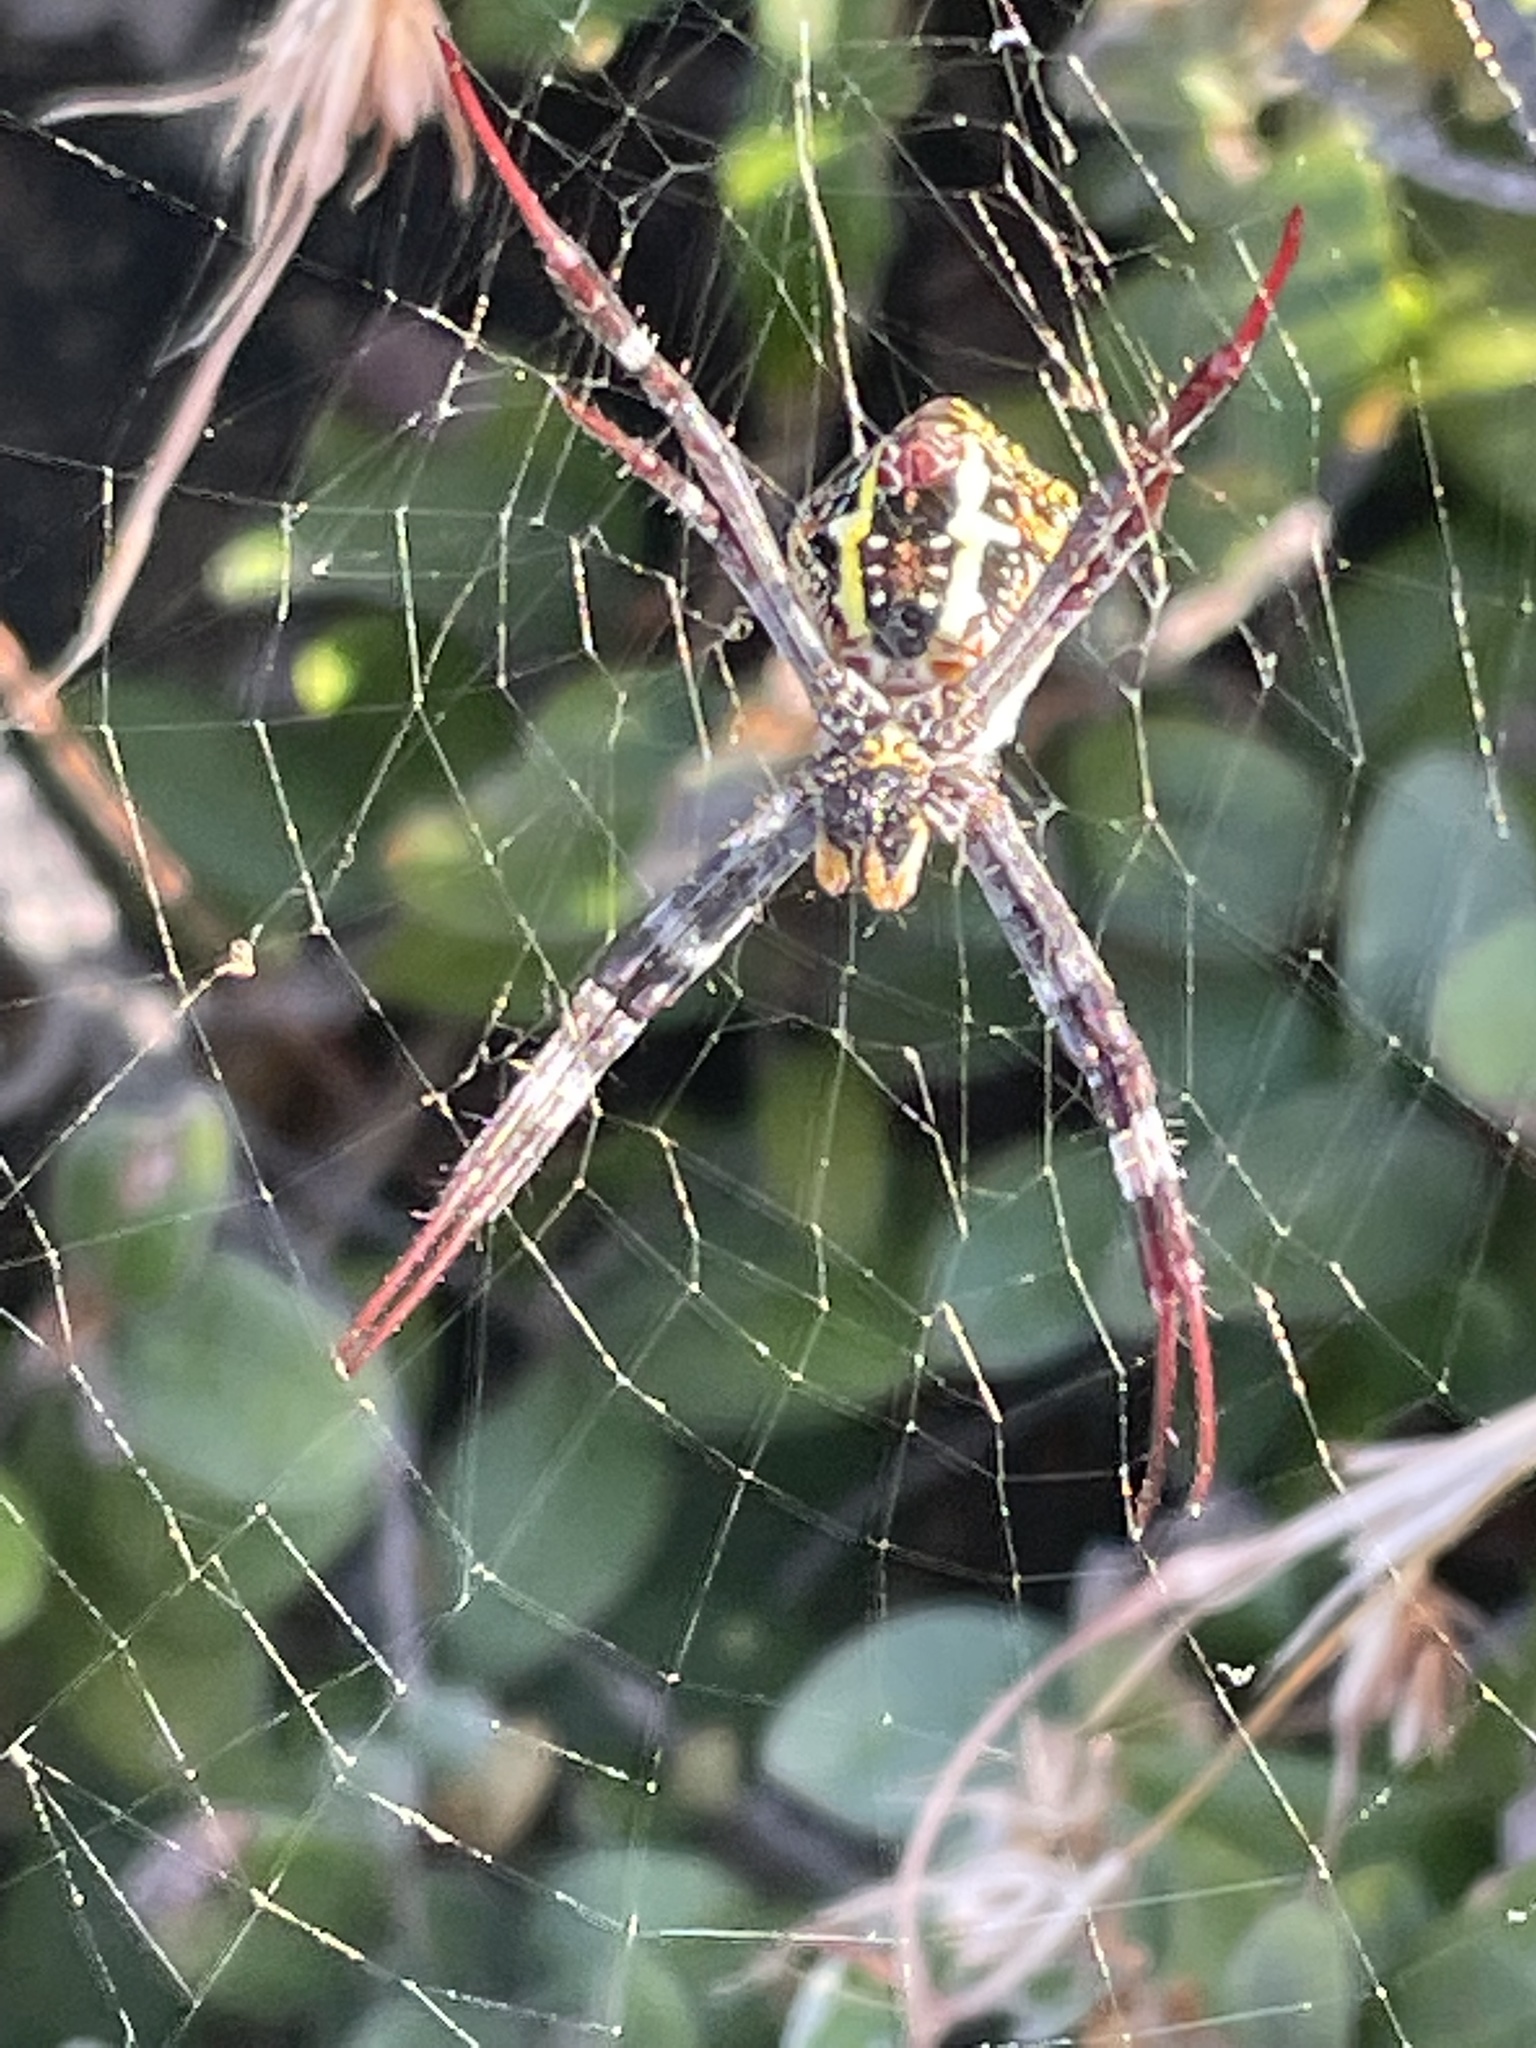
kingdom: Animalia
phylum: Arthropoda
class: Arachnida
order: Araneae
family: Araneidae
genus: Argiope
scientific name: Argiope aetherea
